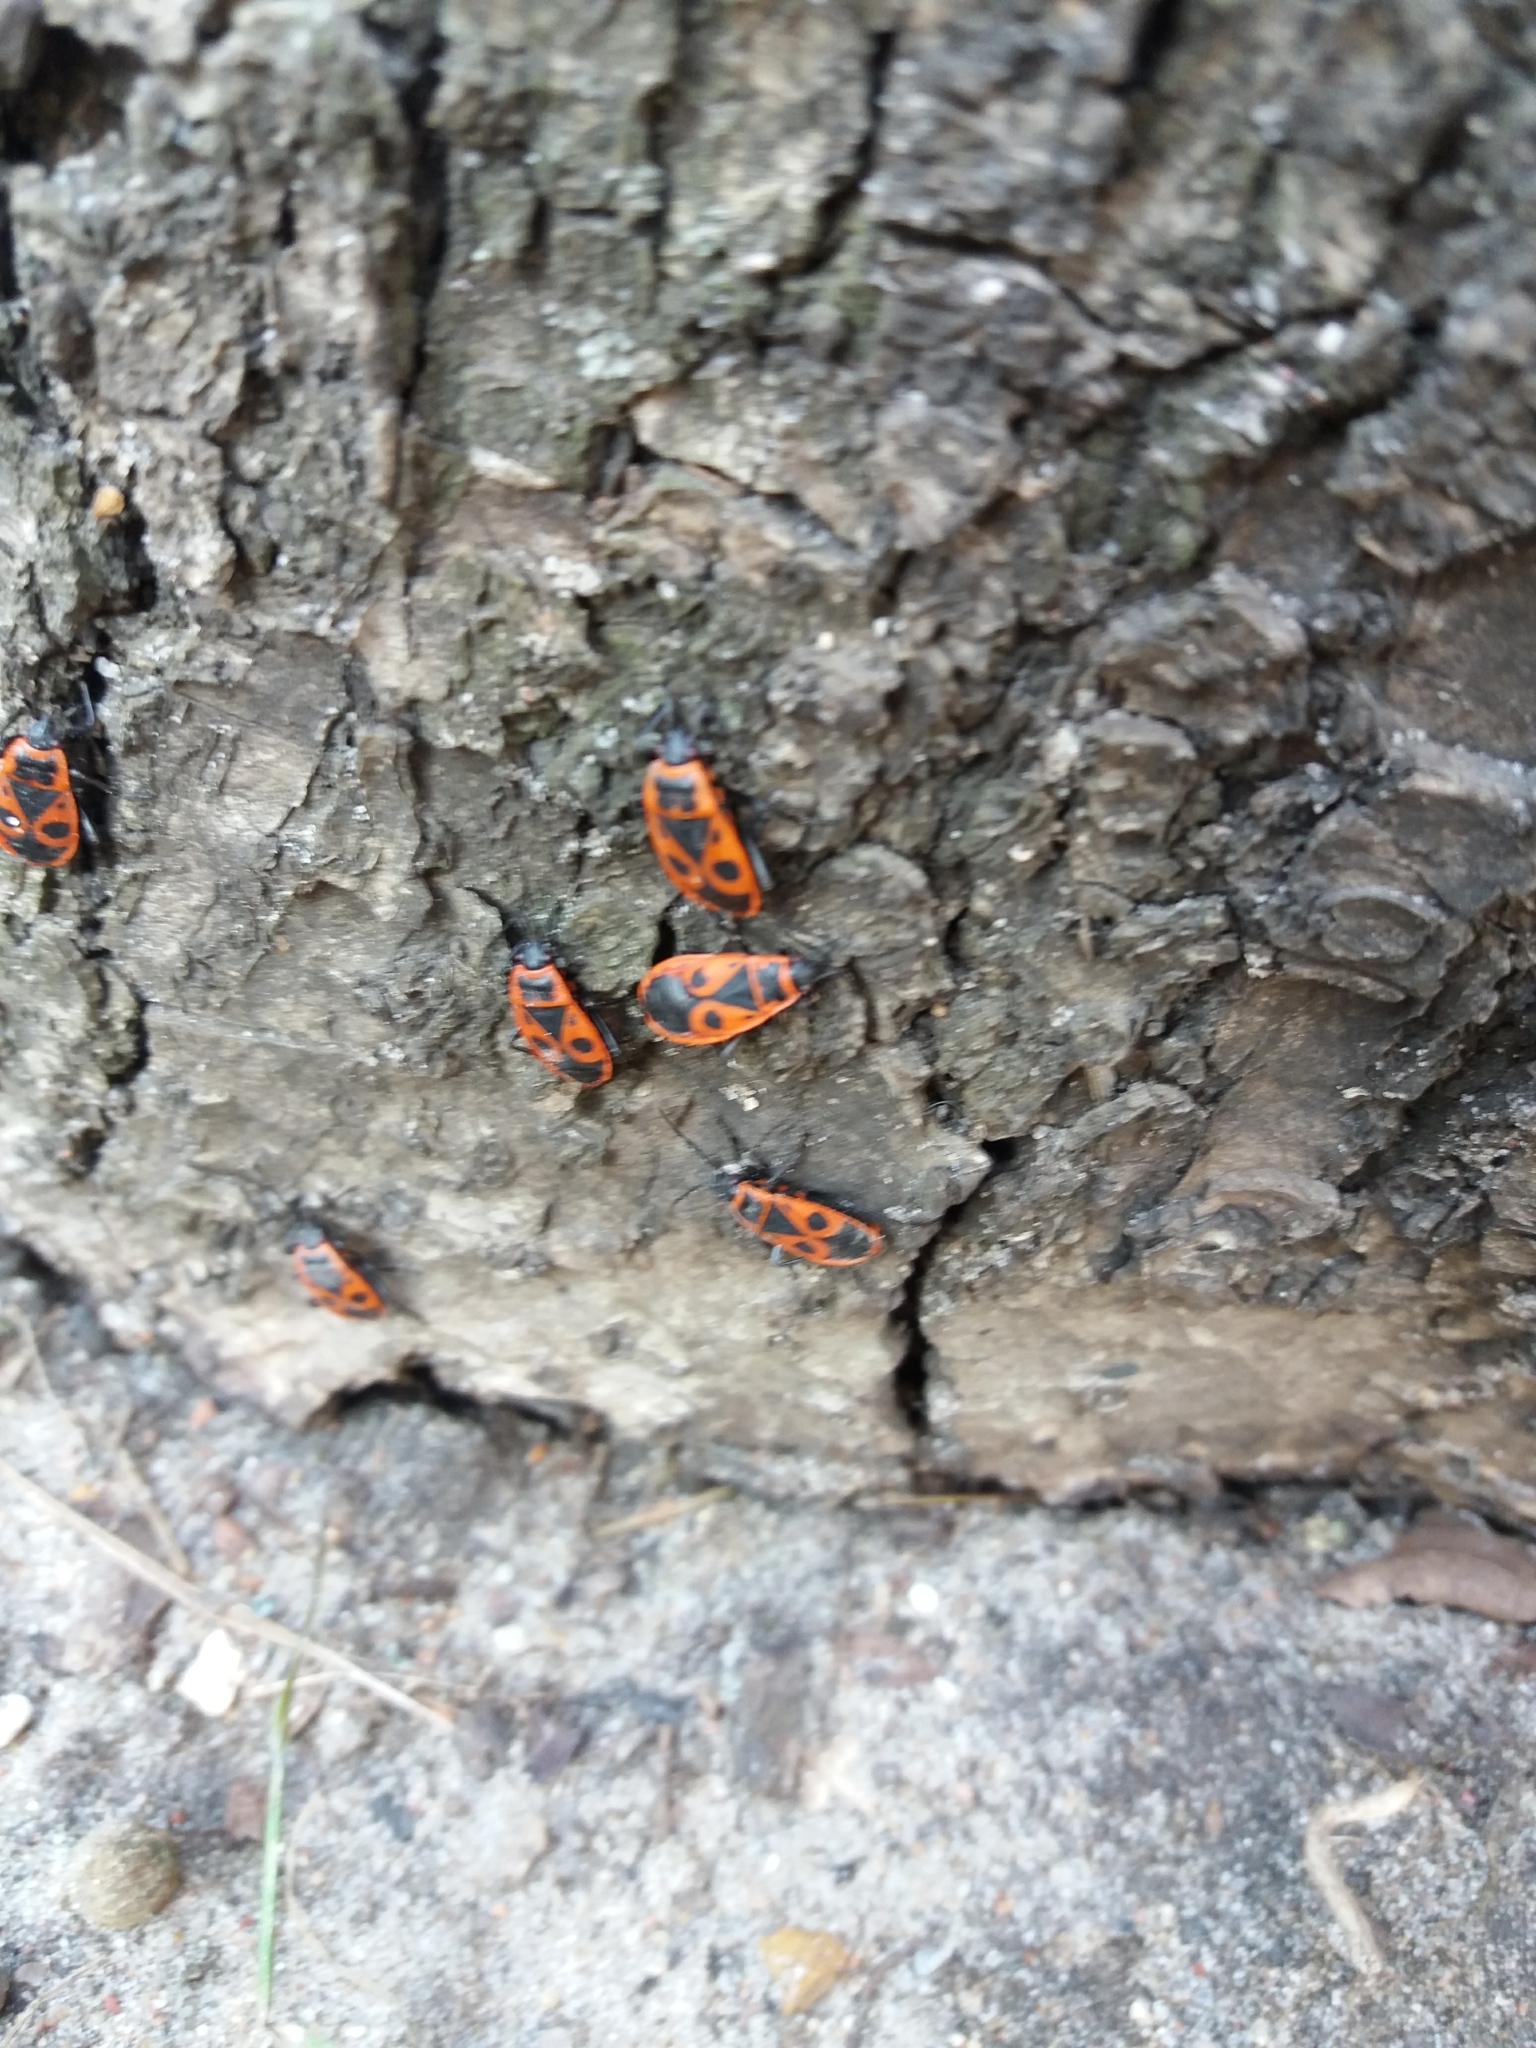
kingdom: Animalia
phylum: Arthropoda
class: Insecta
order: Hemiptera
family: Pyrrhocoridae
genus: Pyrrhocoris
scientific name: Pyrrhocoris apterus
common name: Firebug
